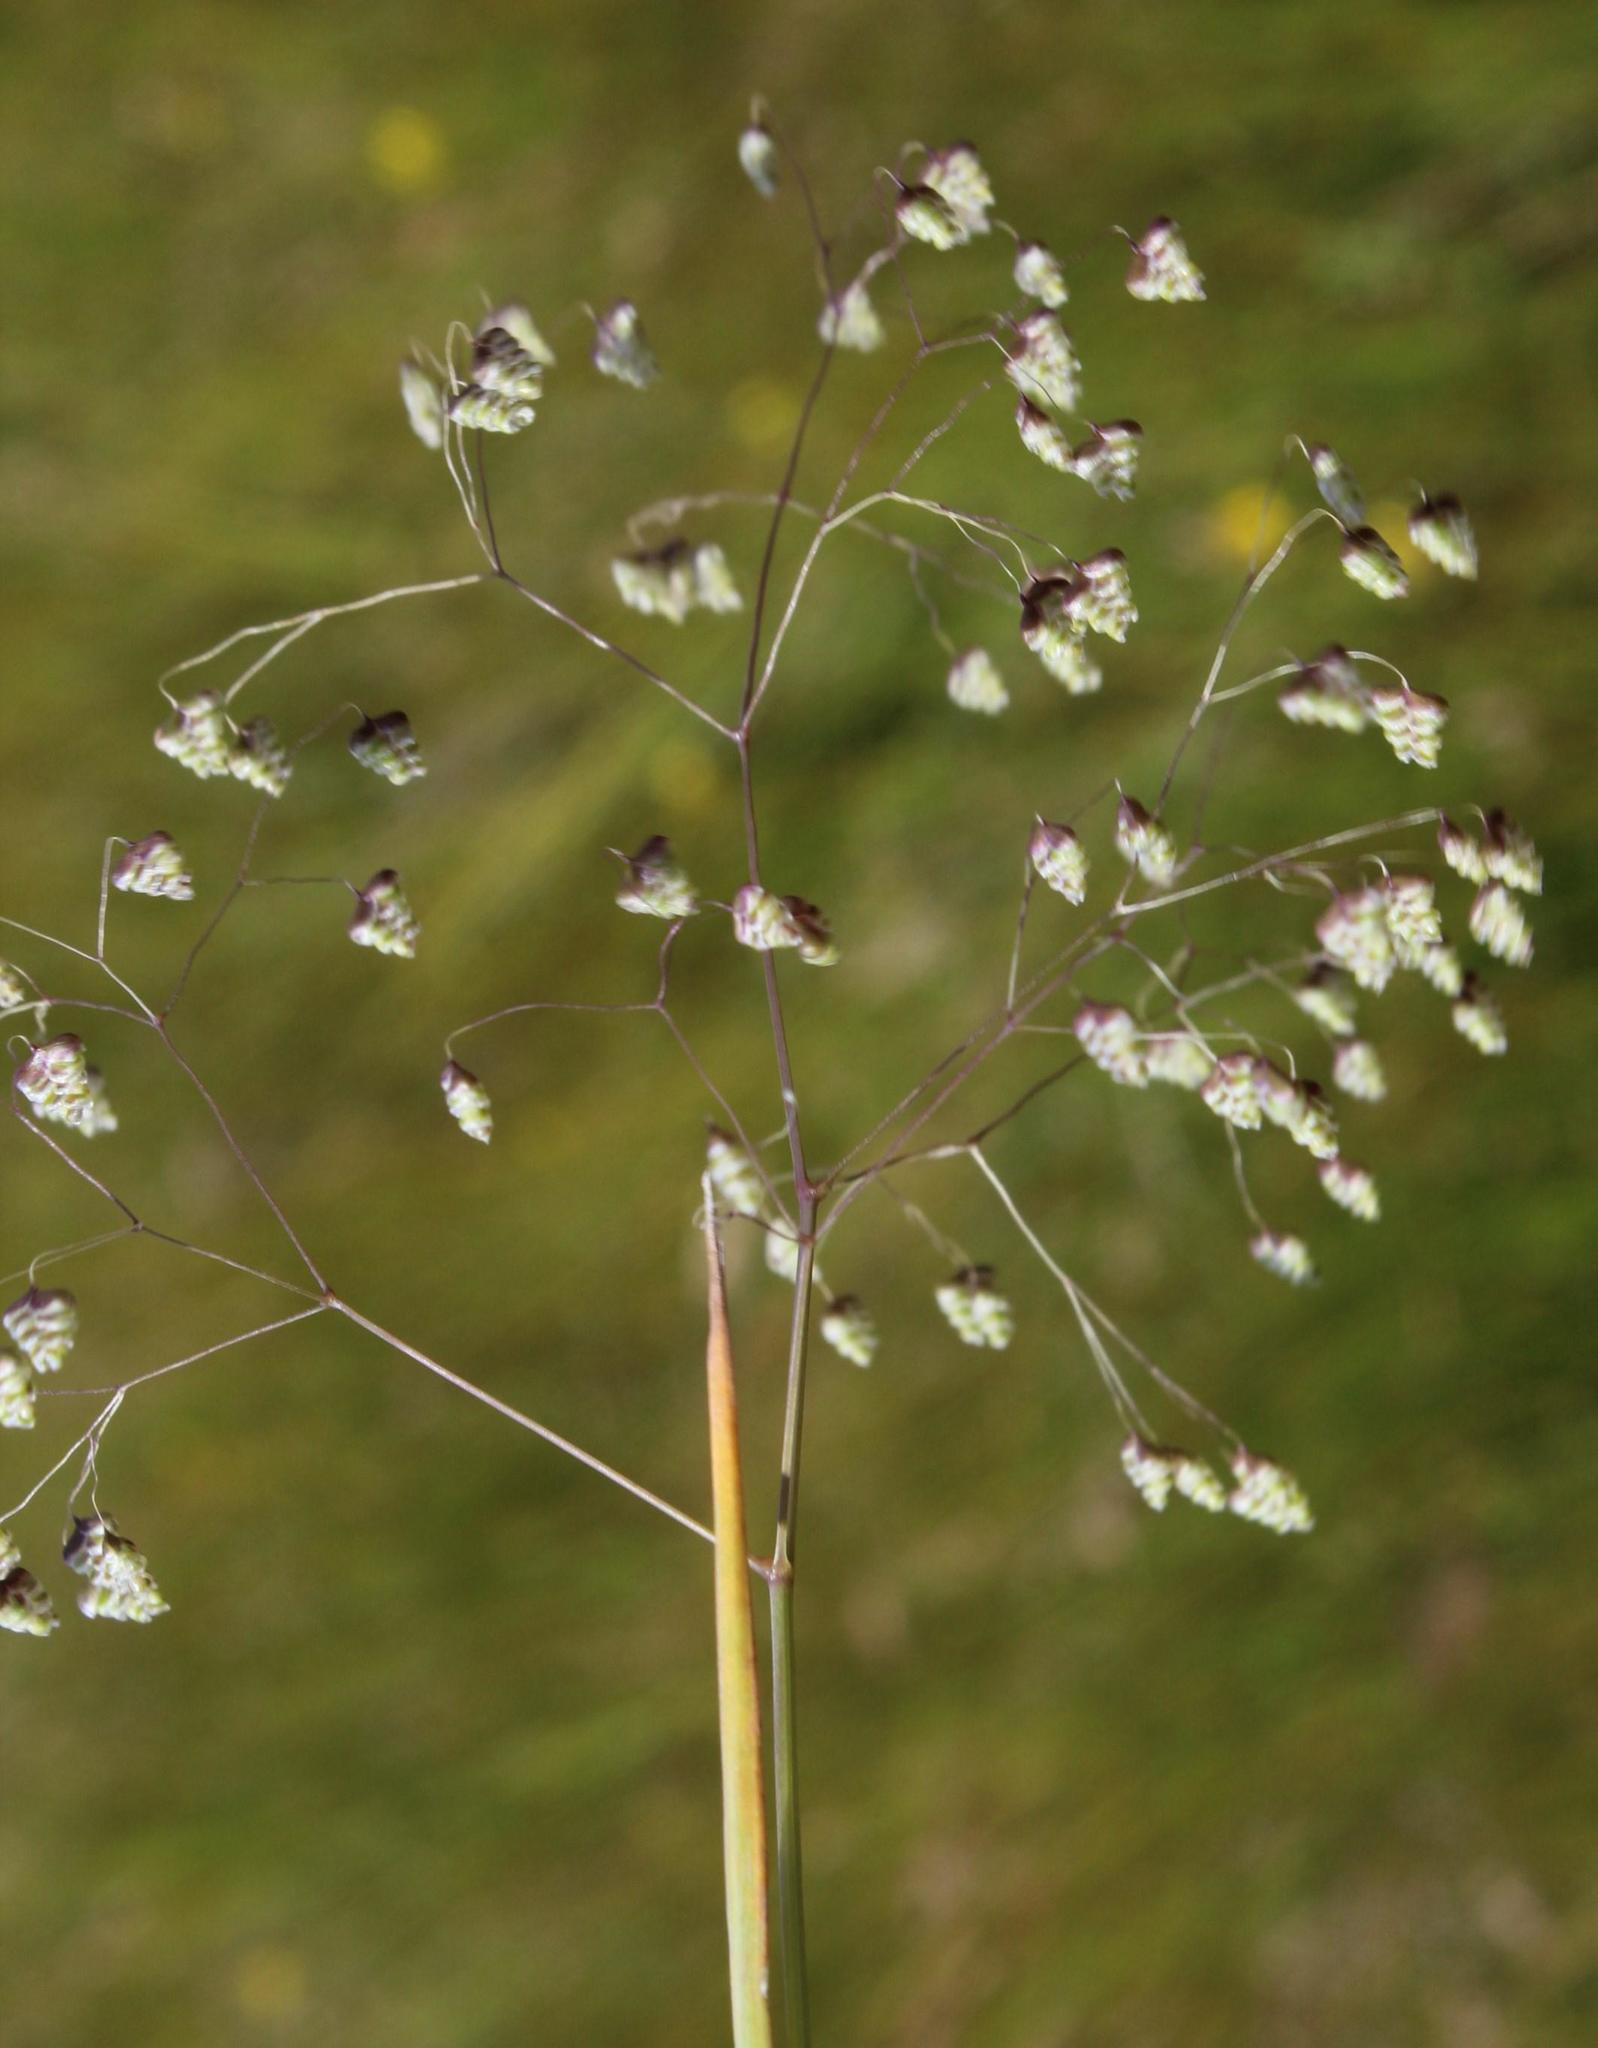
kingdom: Plantae
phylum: Tracheophyta
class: Liliopsida
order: Poales
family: Poaceae
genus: Briza
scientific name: Briza minor
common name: Lesser quaking-grass
